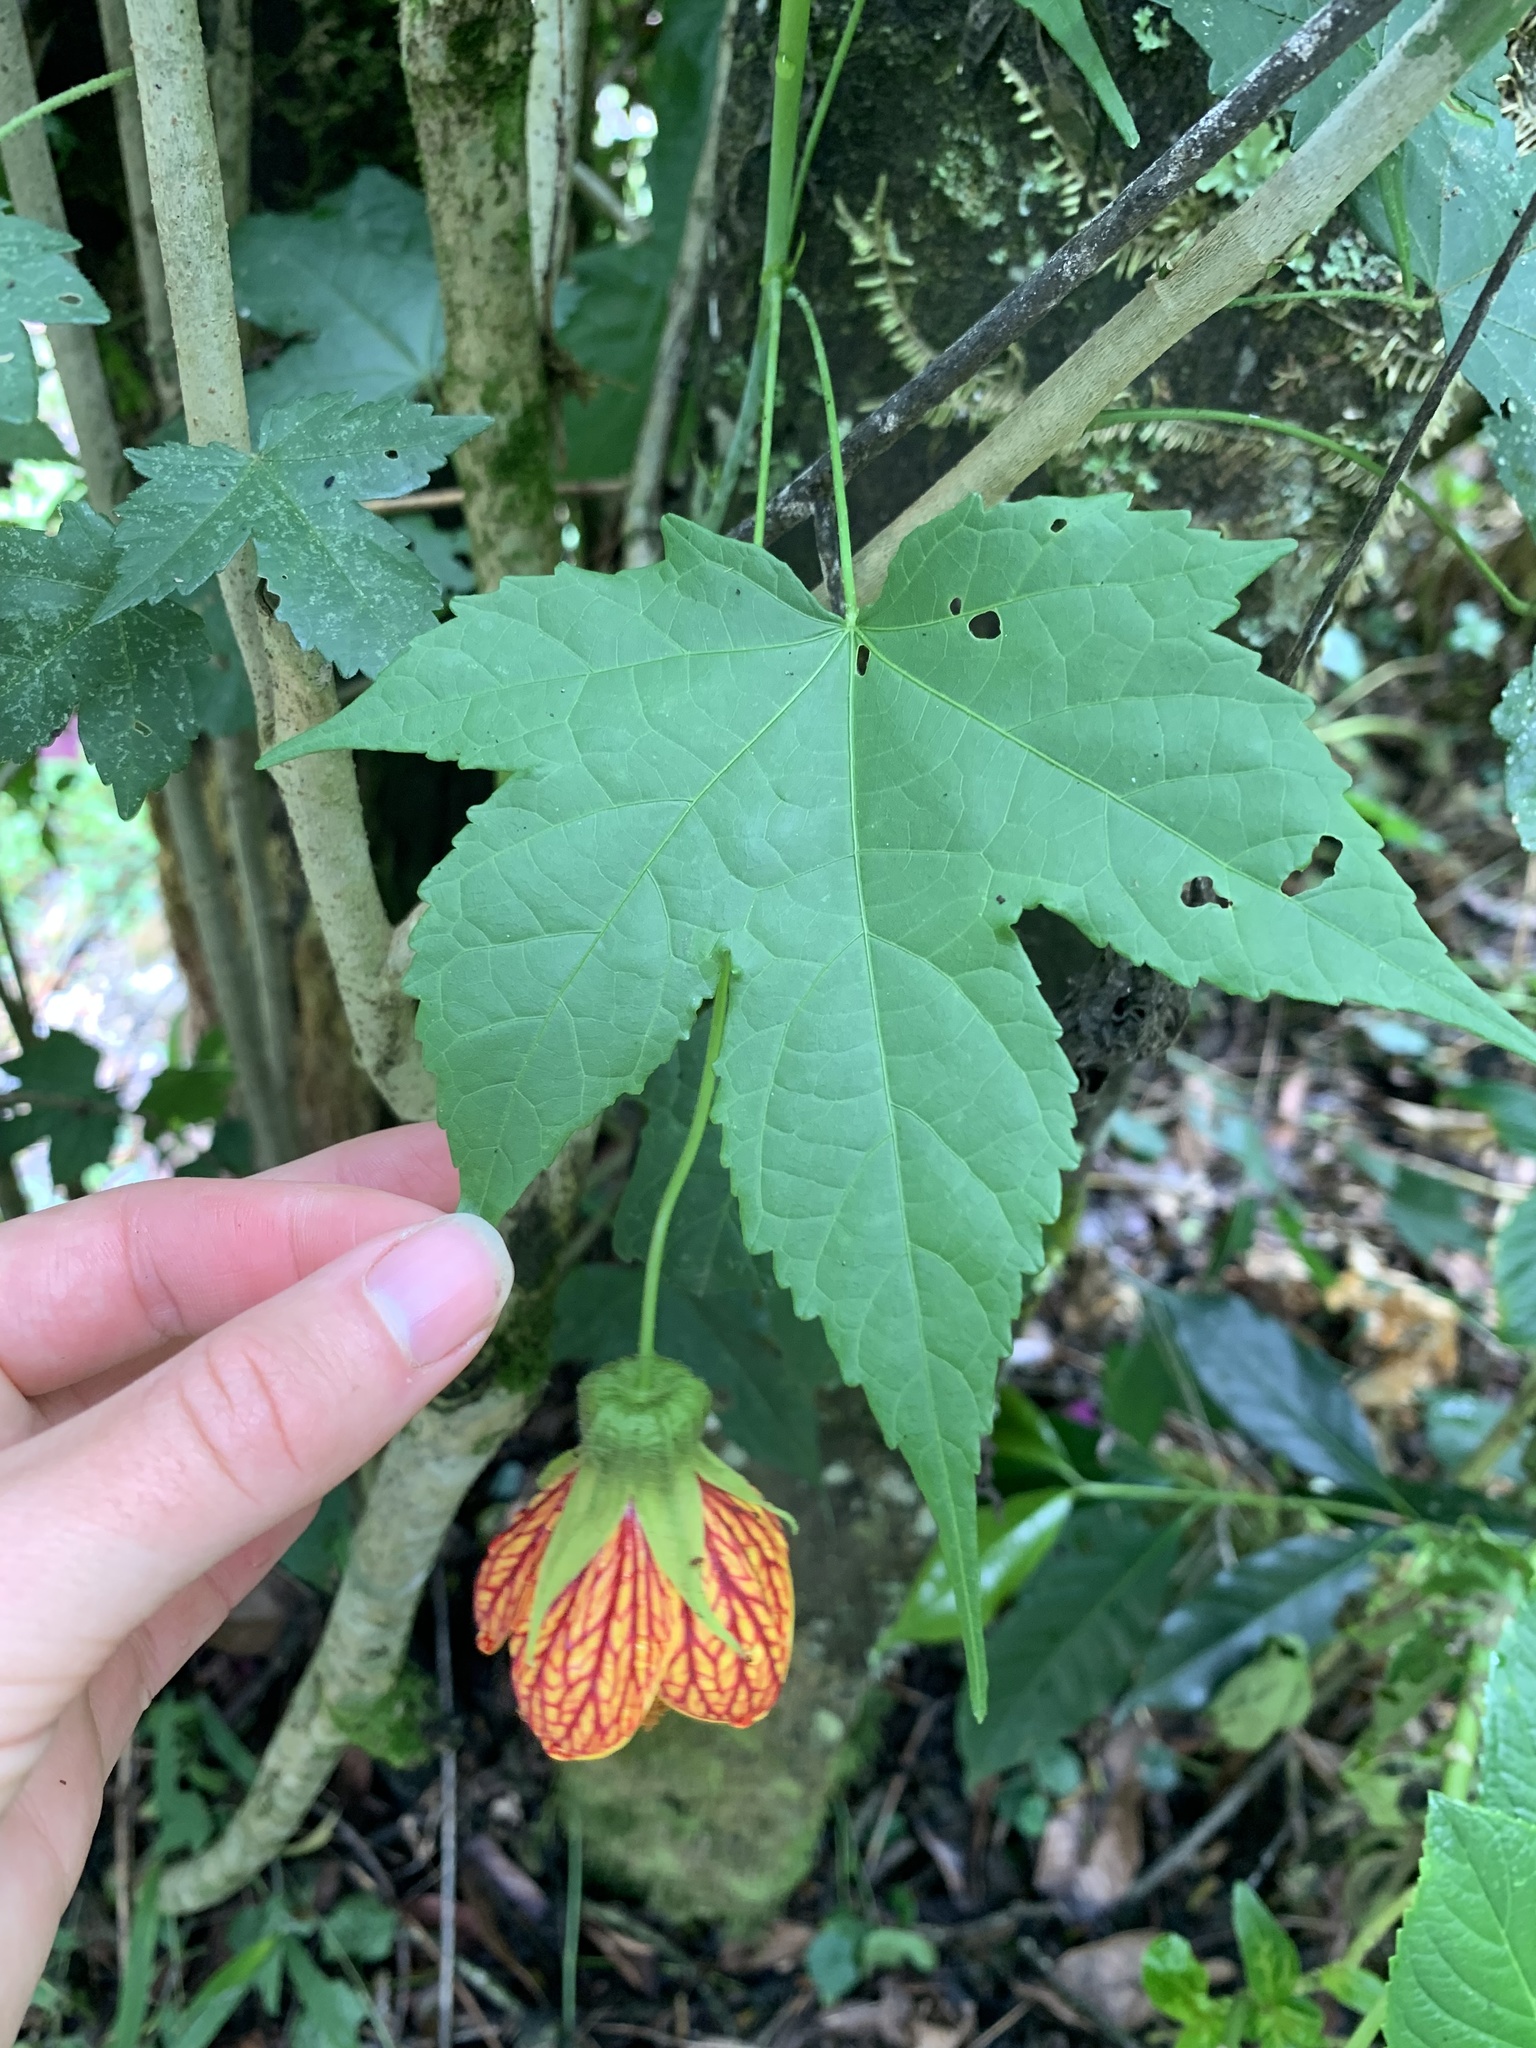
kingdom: Plantae
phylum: Tracheophyta
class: Magnoliopsida
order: Malvales
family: Malvaceae
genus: Callianthe
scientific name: Callianthe picta
